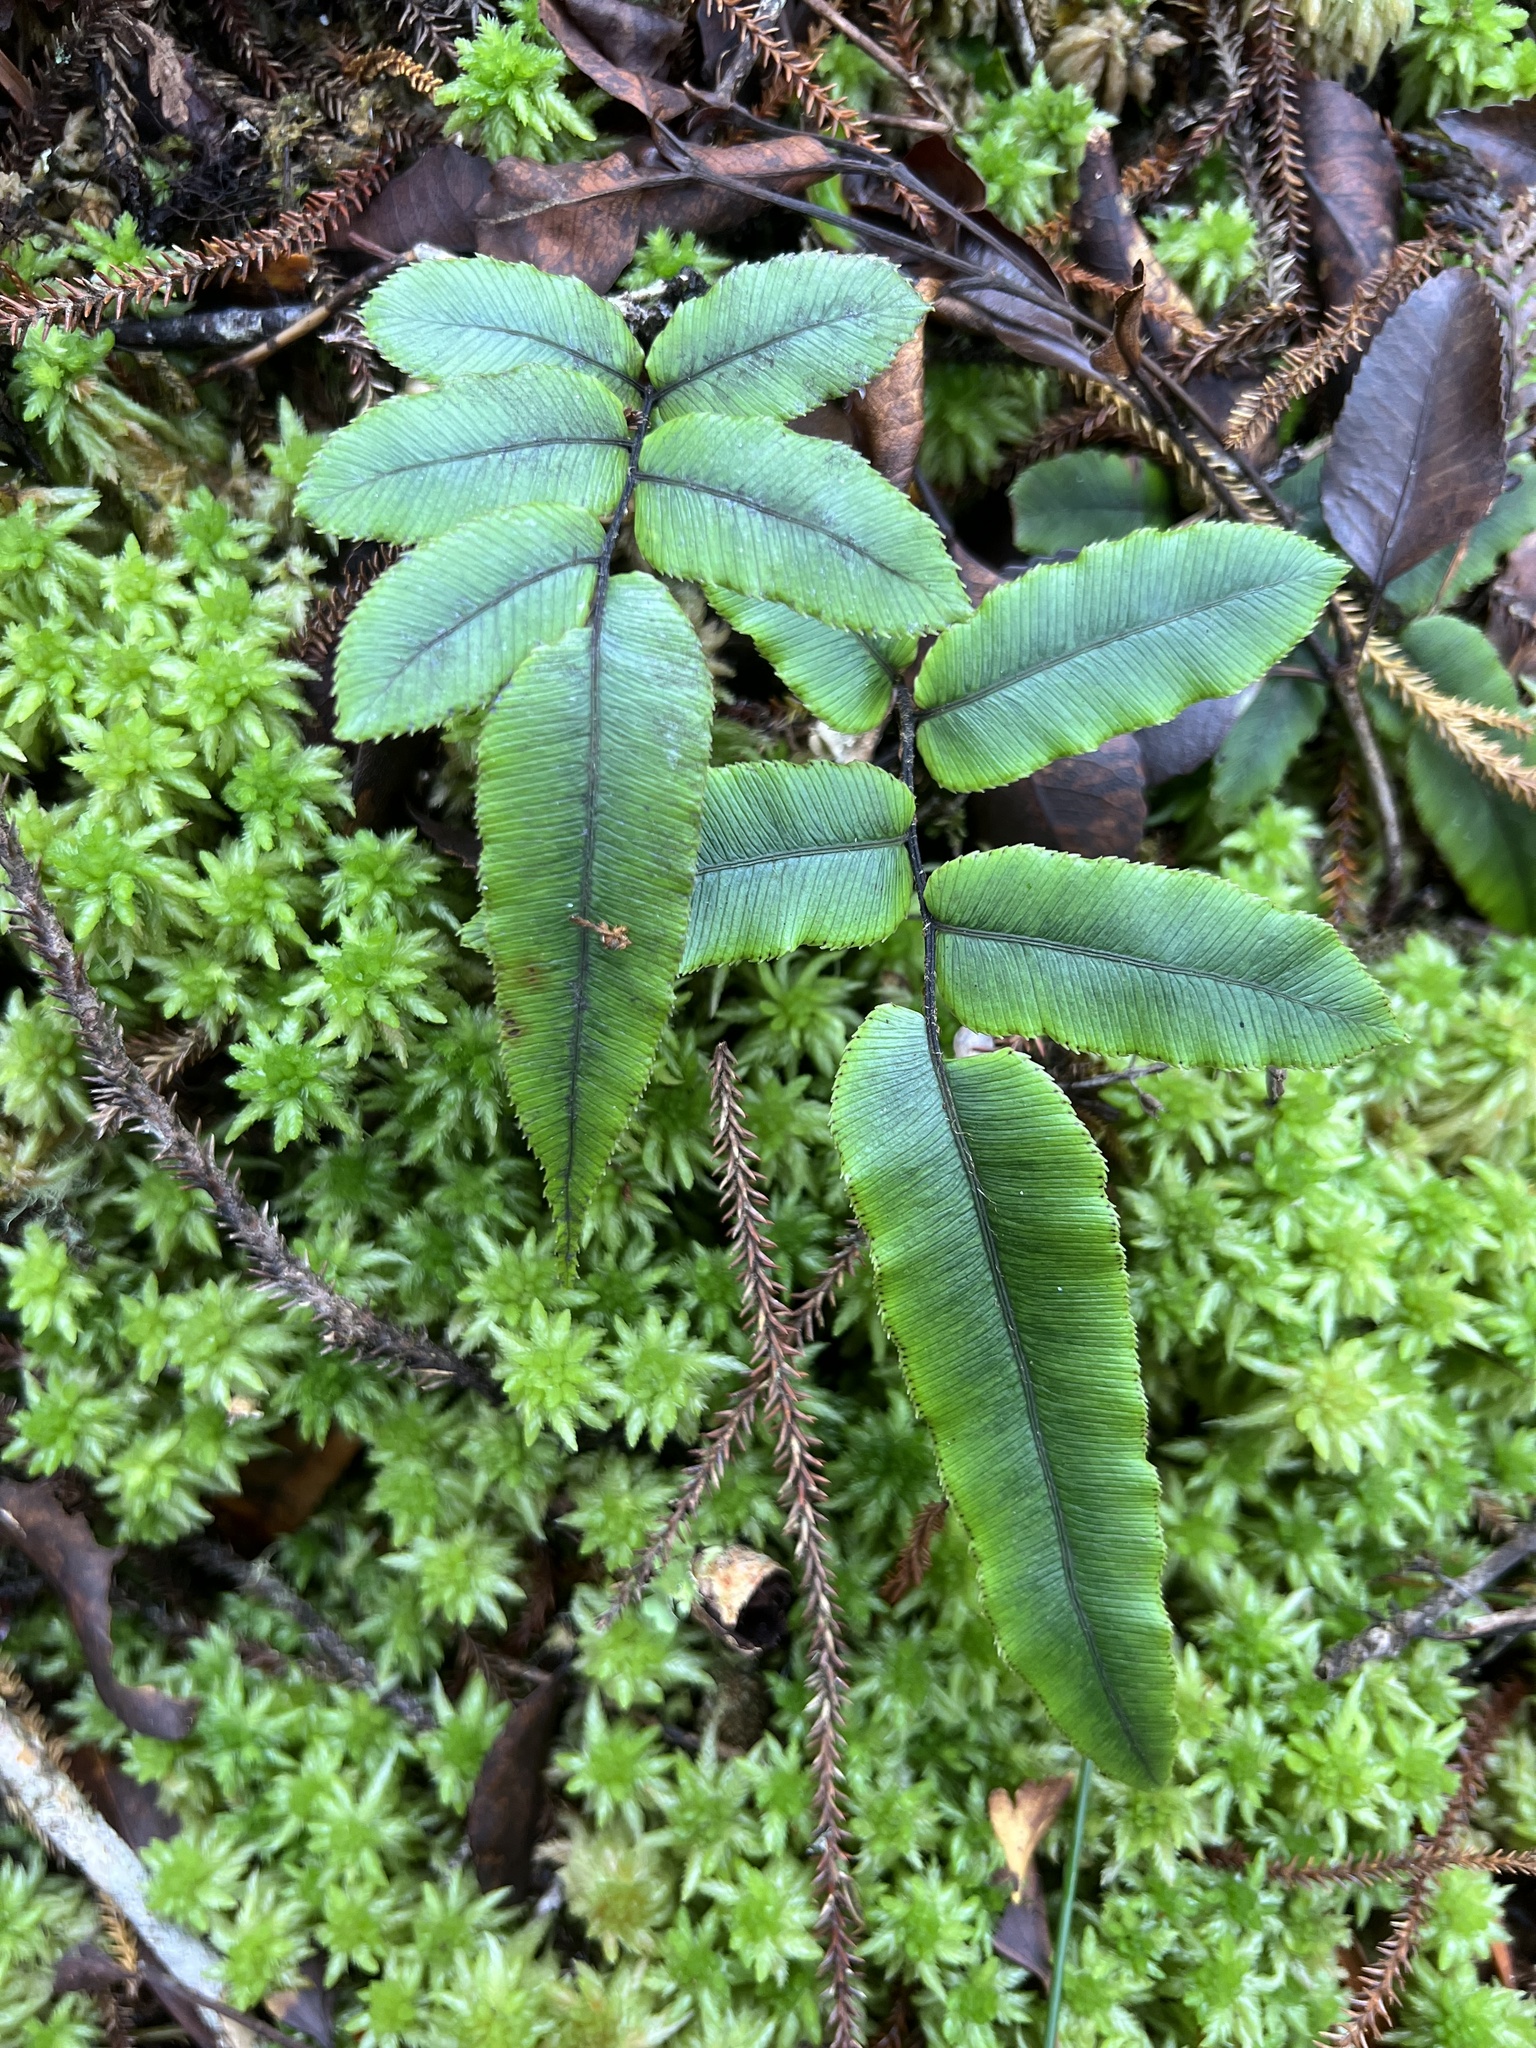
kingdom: Plantae
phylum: Tracheophyta
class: Polypodiopsida
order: Polypodiales
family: Blechnaceae
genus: Parablechnum
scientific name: Parablechnum procerum
